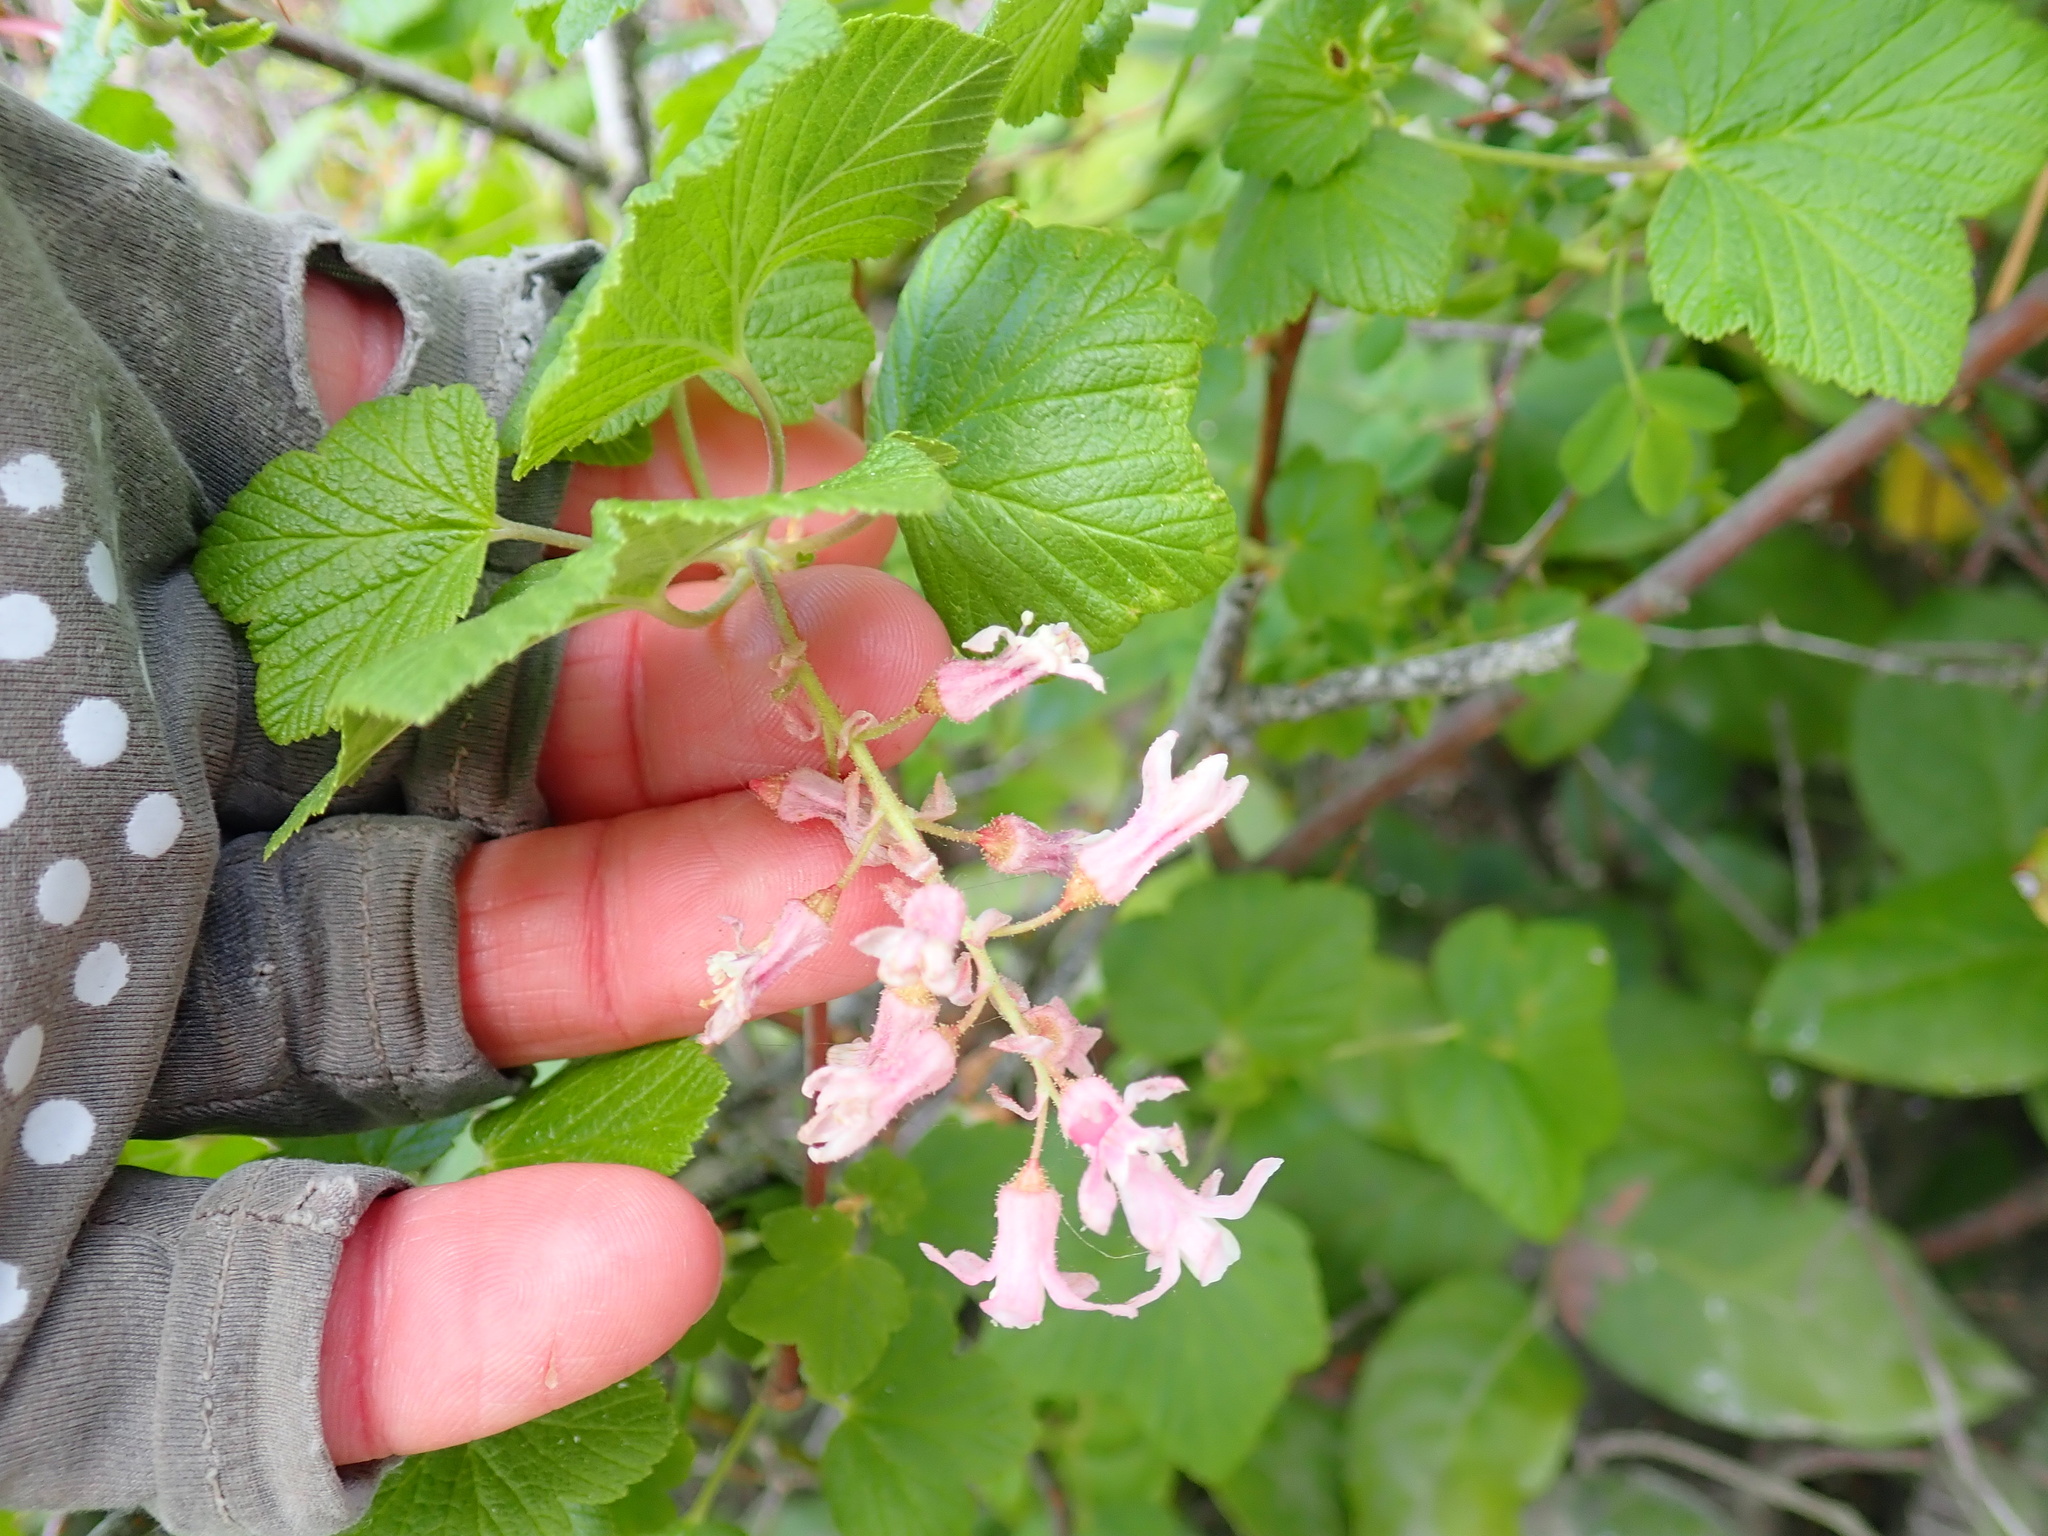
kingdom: Plantae
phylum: Tracheophyta
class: Magnoliopsida
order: Saxifragales
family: Grossulariaceae
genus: Ribes
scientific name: Ribes sanguineum
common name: Flowering currant
